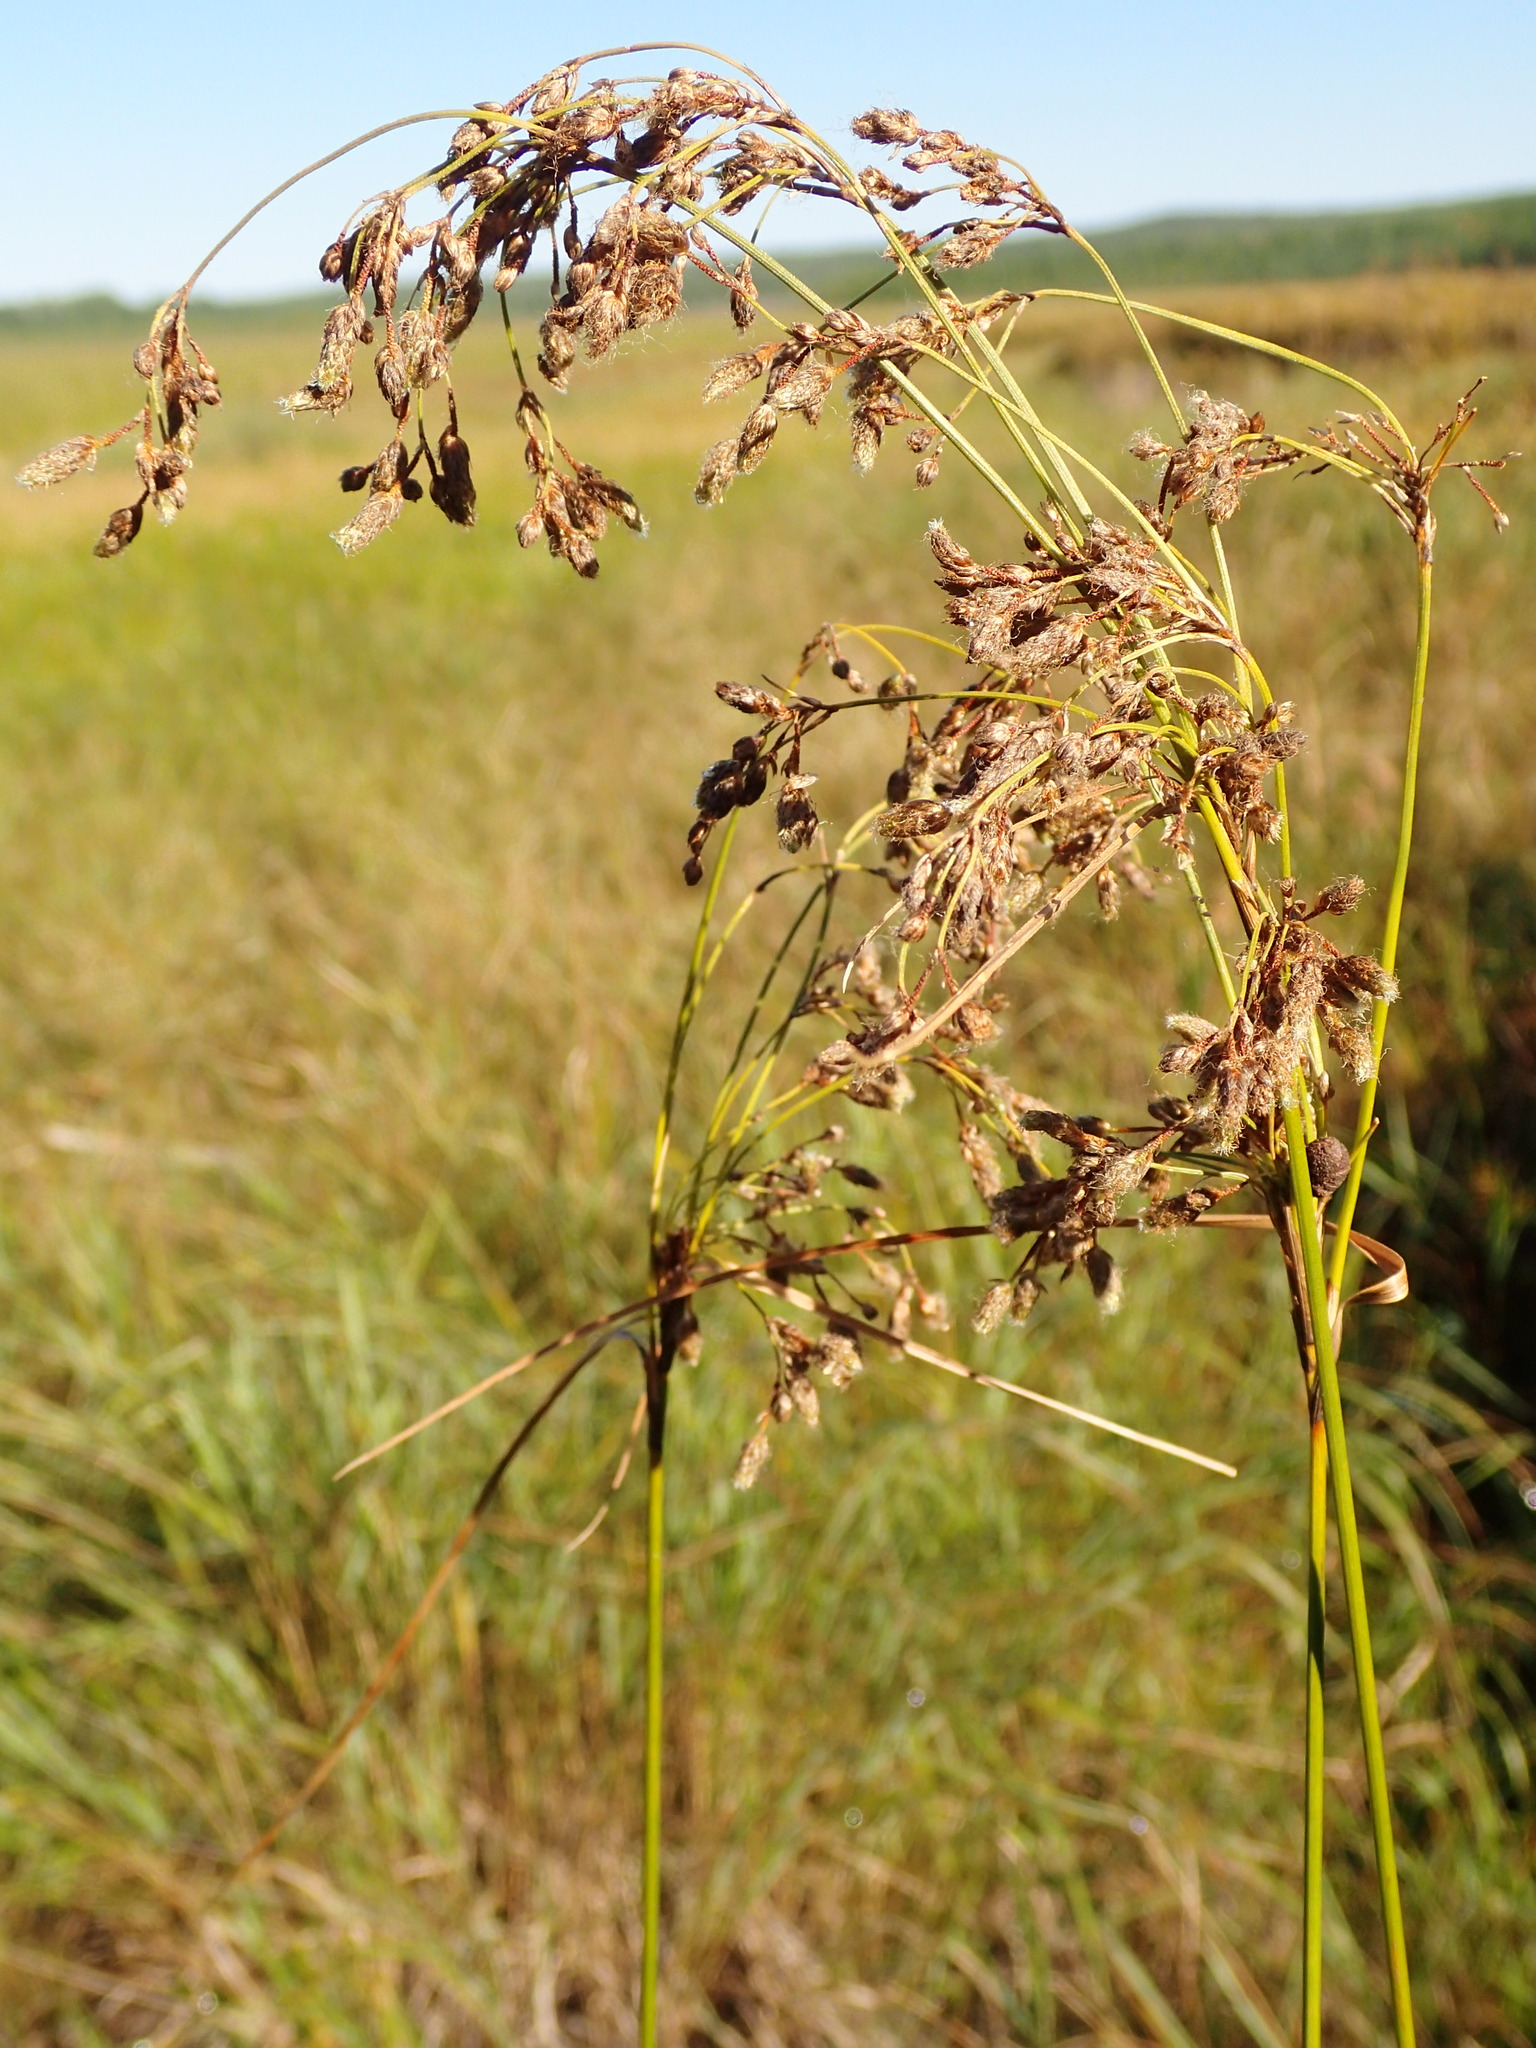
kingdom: Plantae
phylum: Tracheophyta
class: Liliopsida
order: Poales
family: Cyperaceae
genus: Scirpus
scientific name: Scirpus cyperinus
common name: Black-sheathed bulrush
